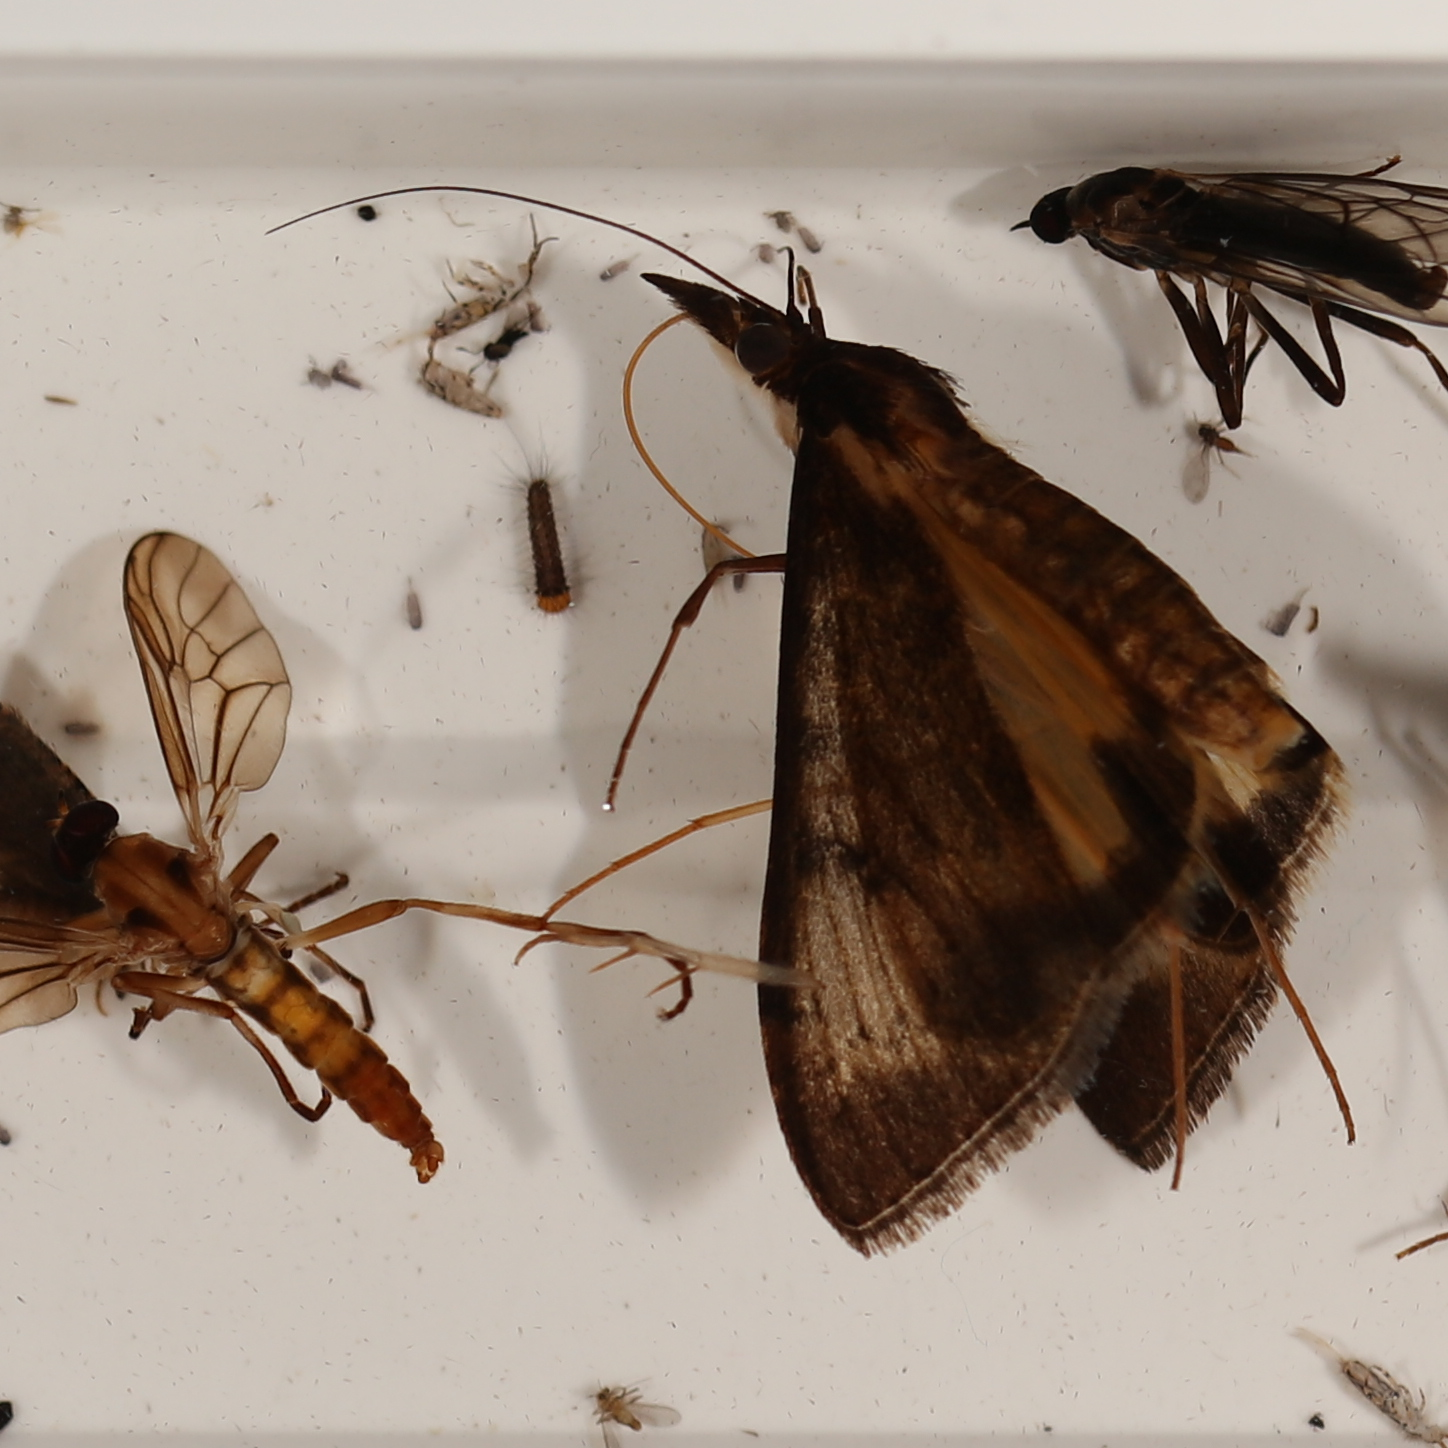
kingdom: Animalia
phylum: Arthropoda
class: Insecta
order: Lepidoptera
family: Crambidae
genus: Uresiphita
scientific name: Uresiphita ornithopteralis
